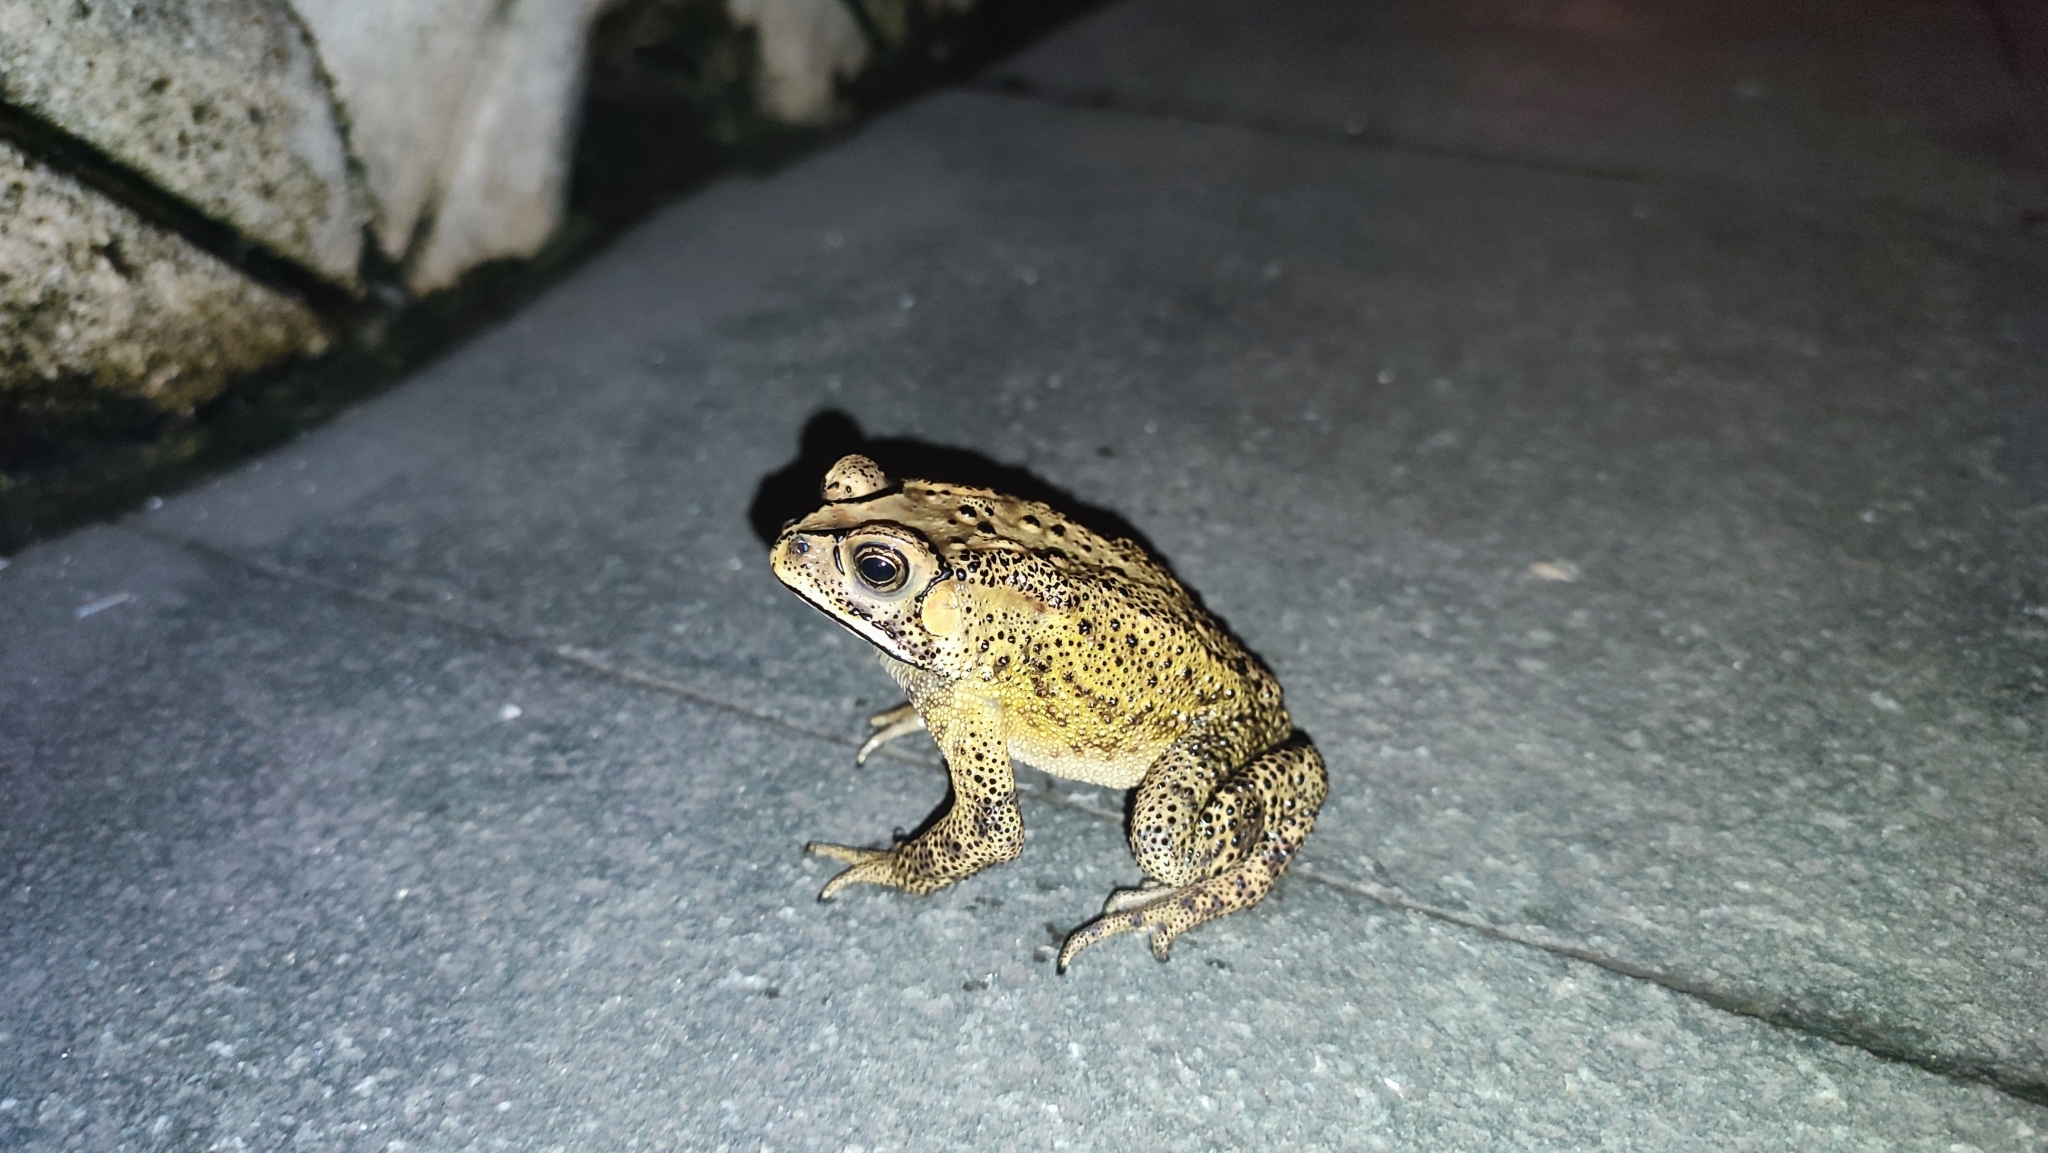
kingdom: Animalia
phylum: Chordata
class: Amphibia
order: Anura
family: Bufonidae
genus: Duttaphrynus
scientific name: Duttaphrynus melanostictus
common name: Common sunda toad
